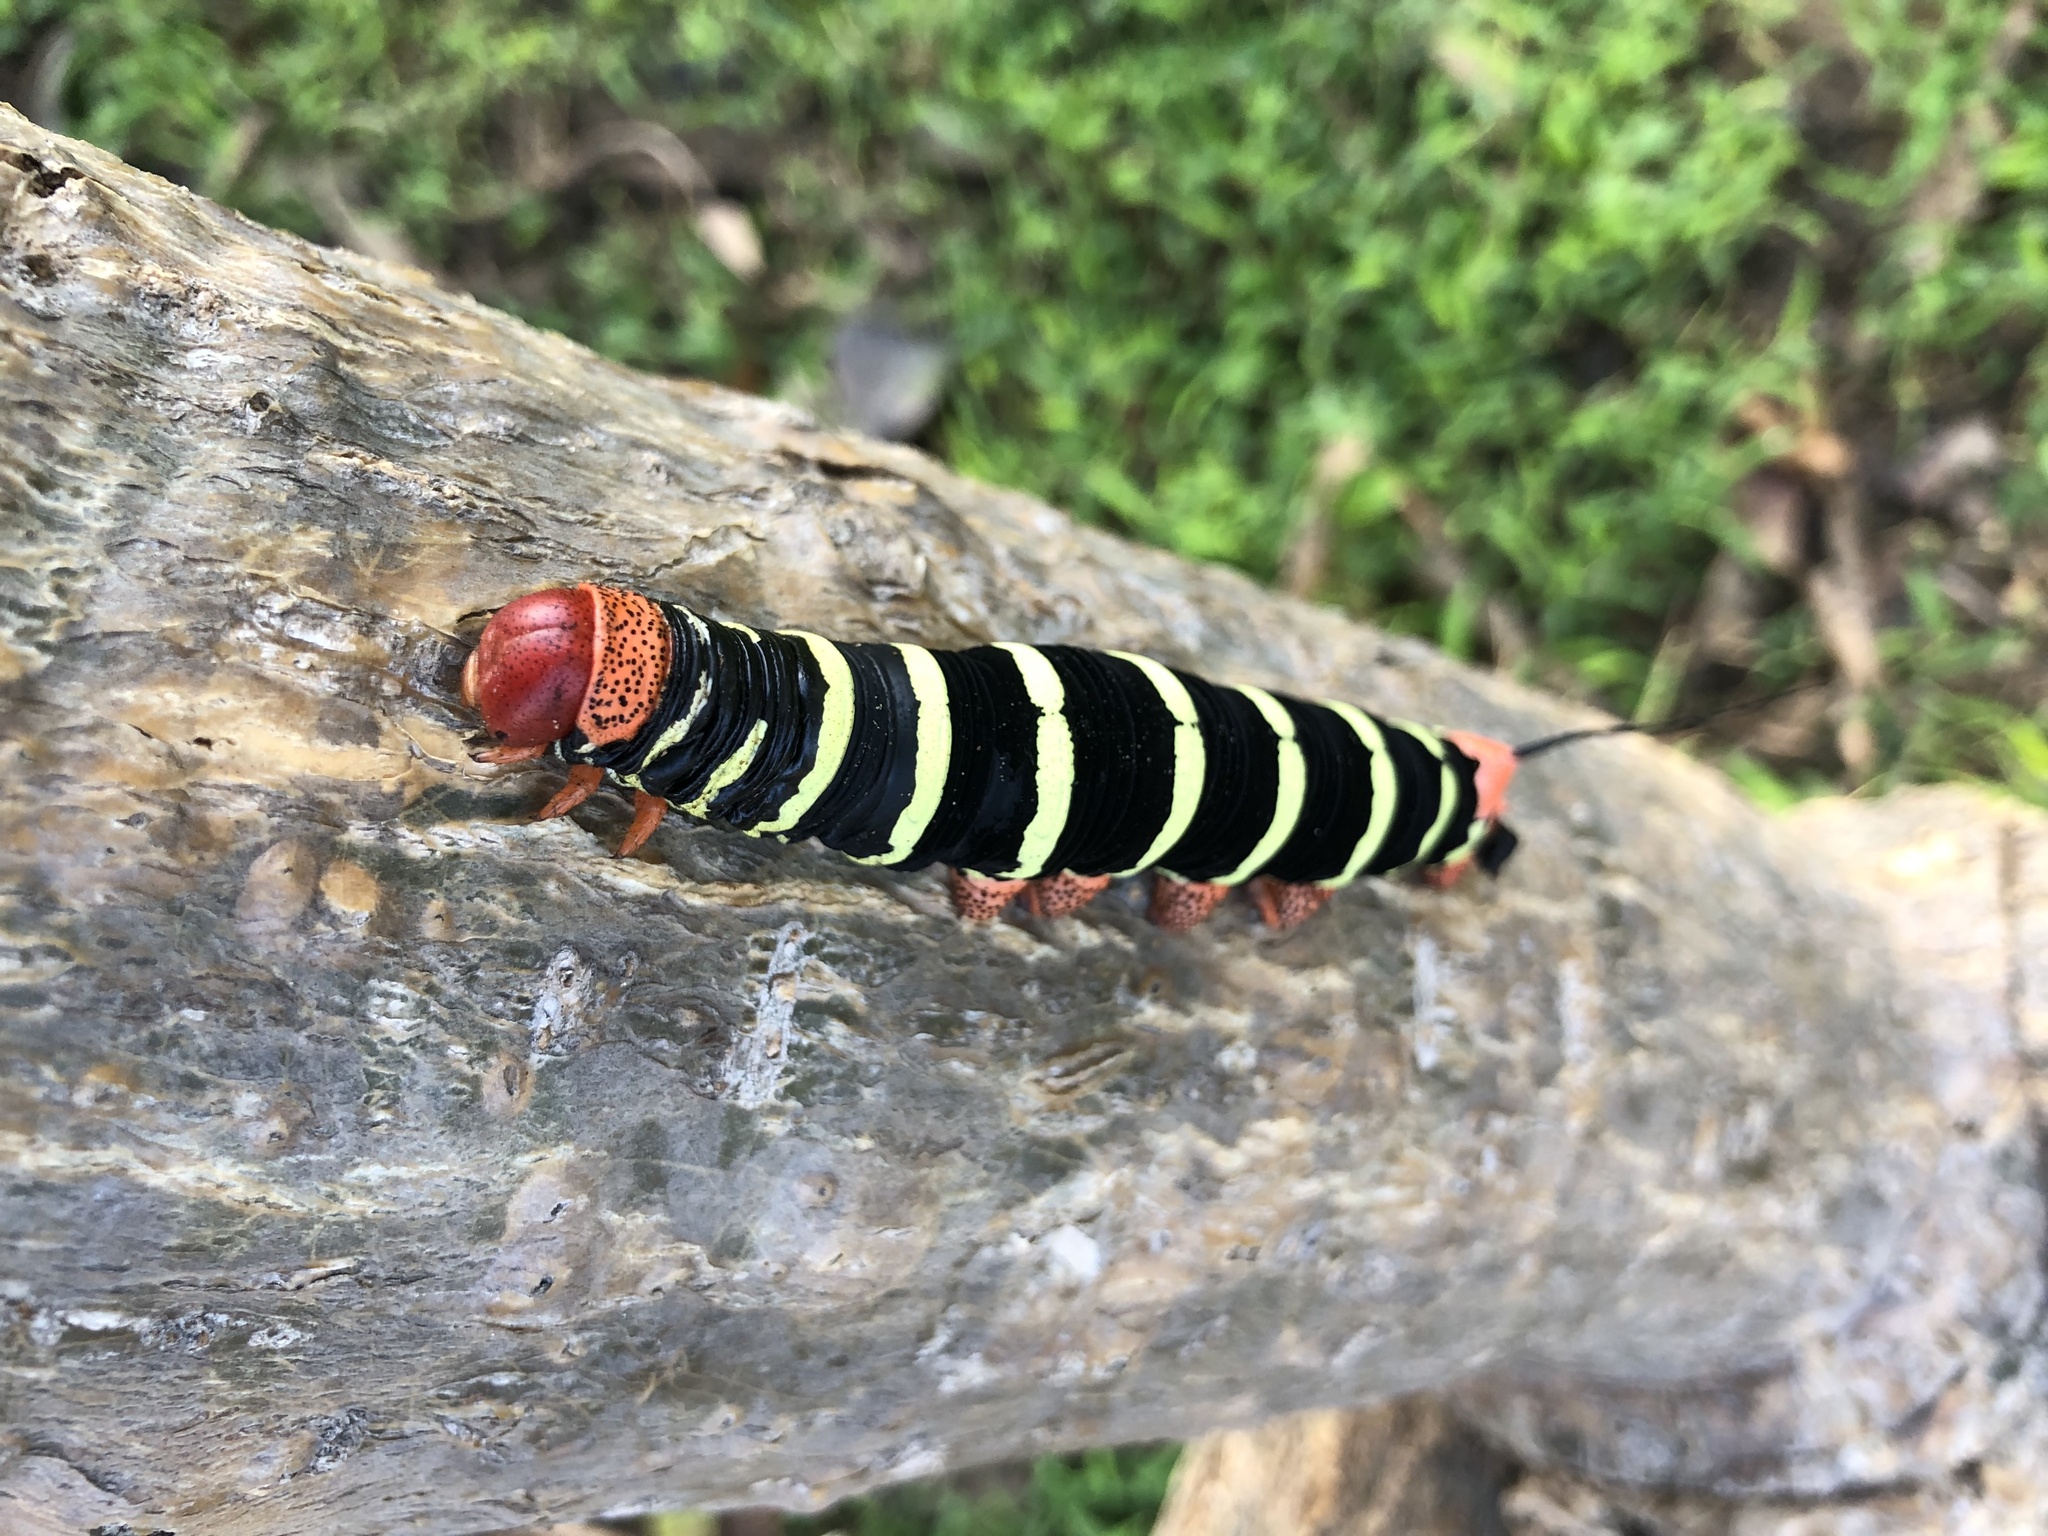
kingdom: Animalia
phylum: Arthropoda
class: Insecta
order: Lepidoptera
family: Sphingidae
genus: Pseudosphinx
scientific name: Pseudosphinx tetrio
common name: Tetrio sphinx
